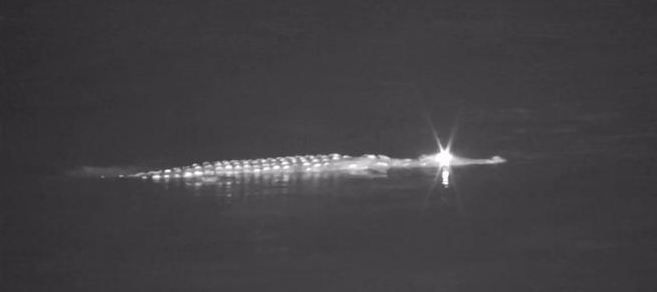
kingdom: Animalia
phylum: Chordata
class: Crocodylia
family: Crocodylidae
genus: Crocodylus
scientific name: Crocodylus niloticus
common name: Nile crocodile
